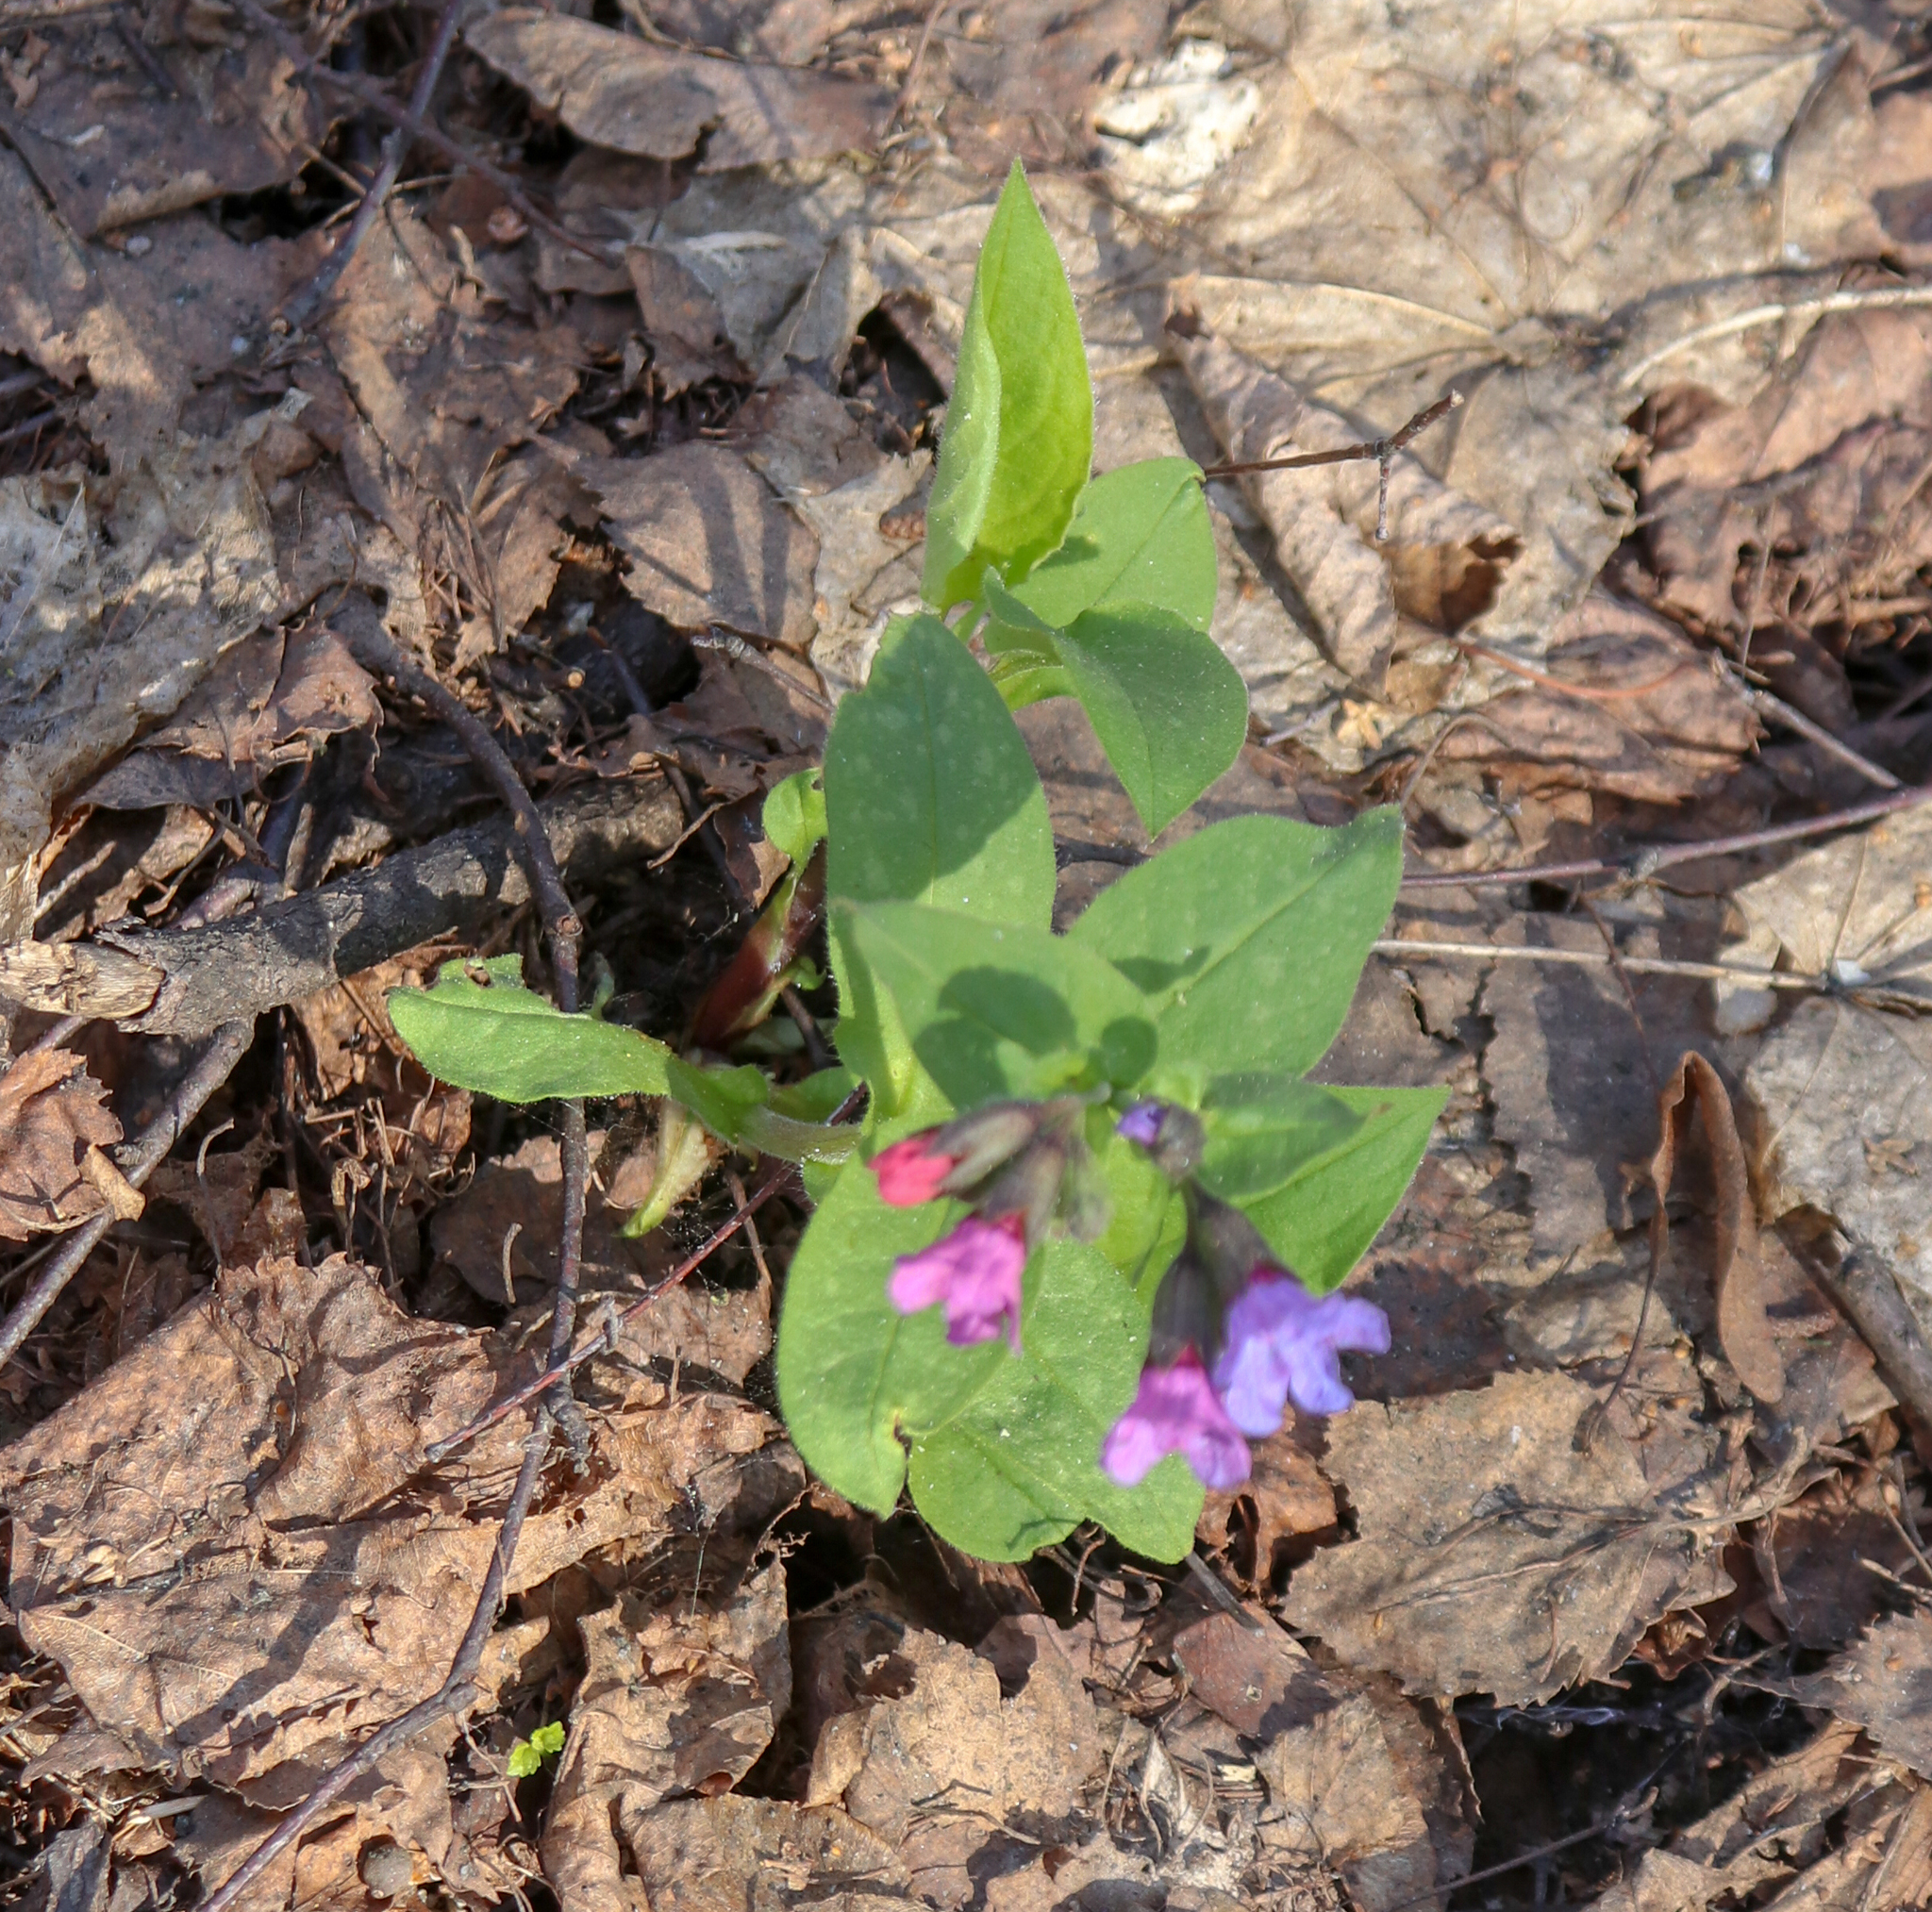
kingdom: Plantae
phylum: Tracheophyta
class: Magnoliopsida
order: Boraginales
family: Boraginaceae
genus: Pulmonaria
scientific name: Pulmonaria obscura
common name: Suffolk lungwort
